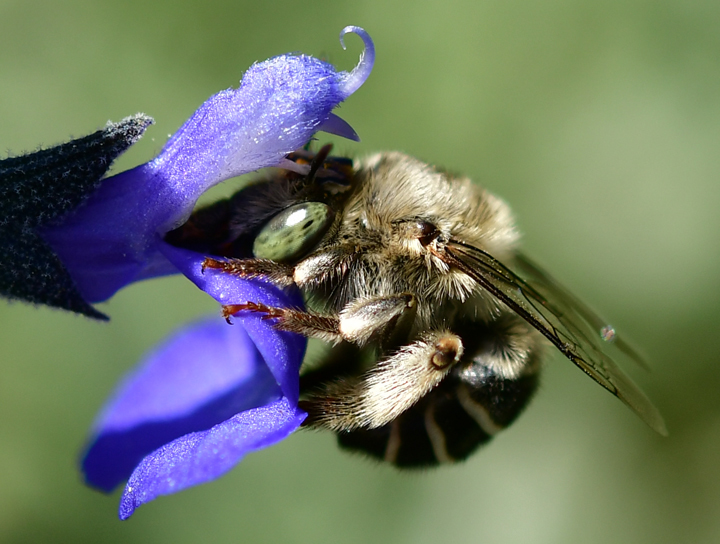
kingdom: Animalia
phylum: Arthropoda
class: Insecta
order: Hymenoptera
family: Apidae
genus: Anthophora
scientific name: Anthophora californica
